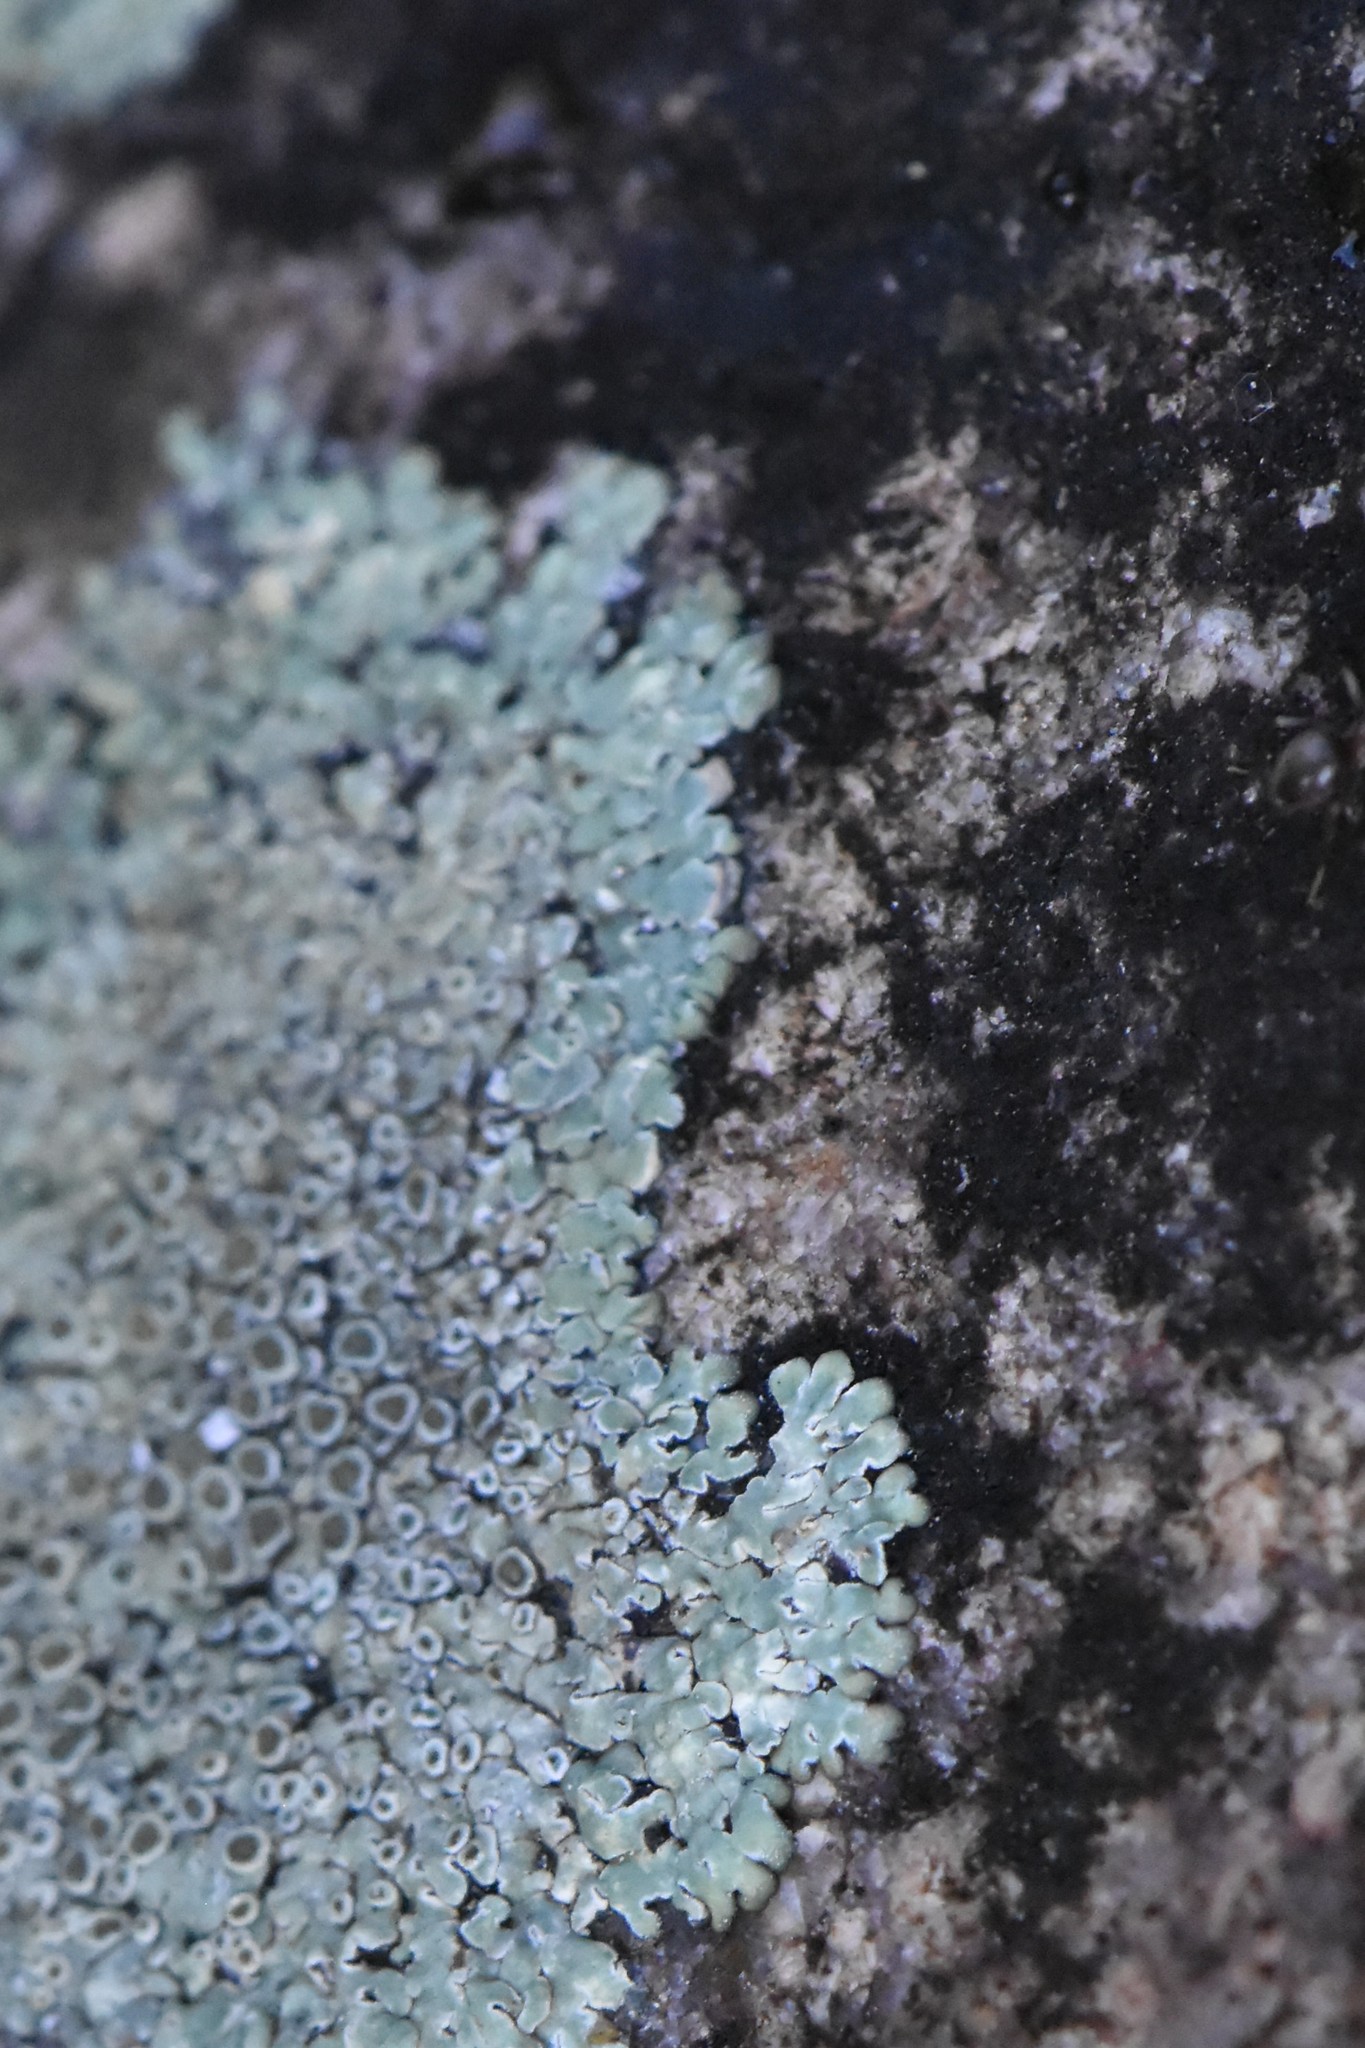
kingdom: Fungi
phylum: Ascomycota
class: Lecanoromycetes
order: Lecanorales
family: Lecanoraceae
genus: Protoparmeliopsis
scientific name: Protoparmeliopsis muralis
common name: Stonewall rim lichen
